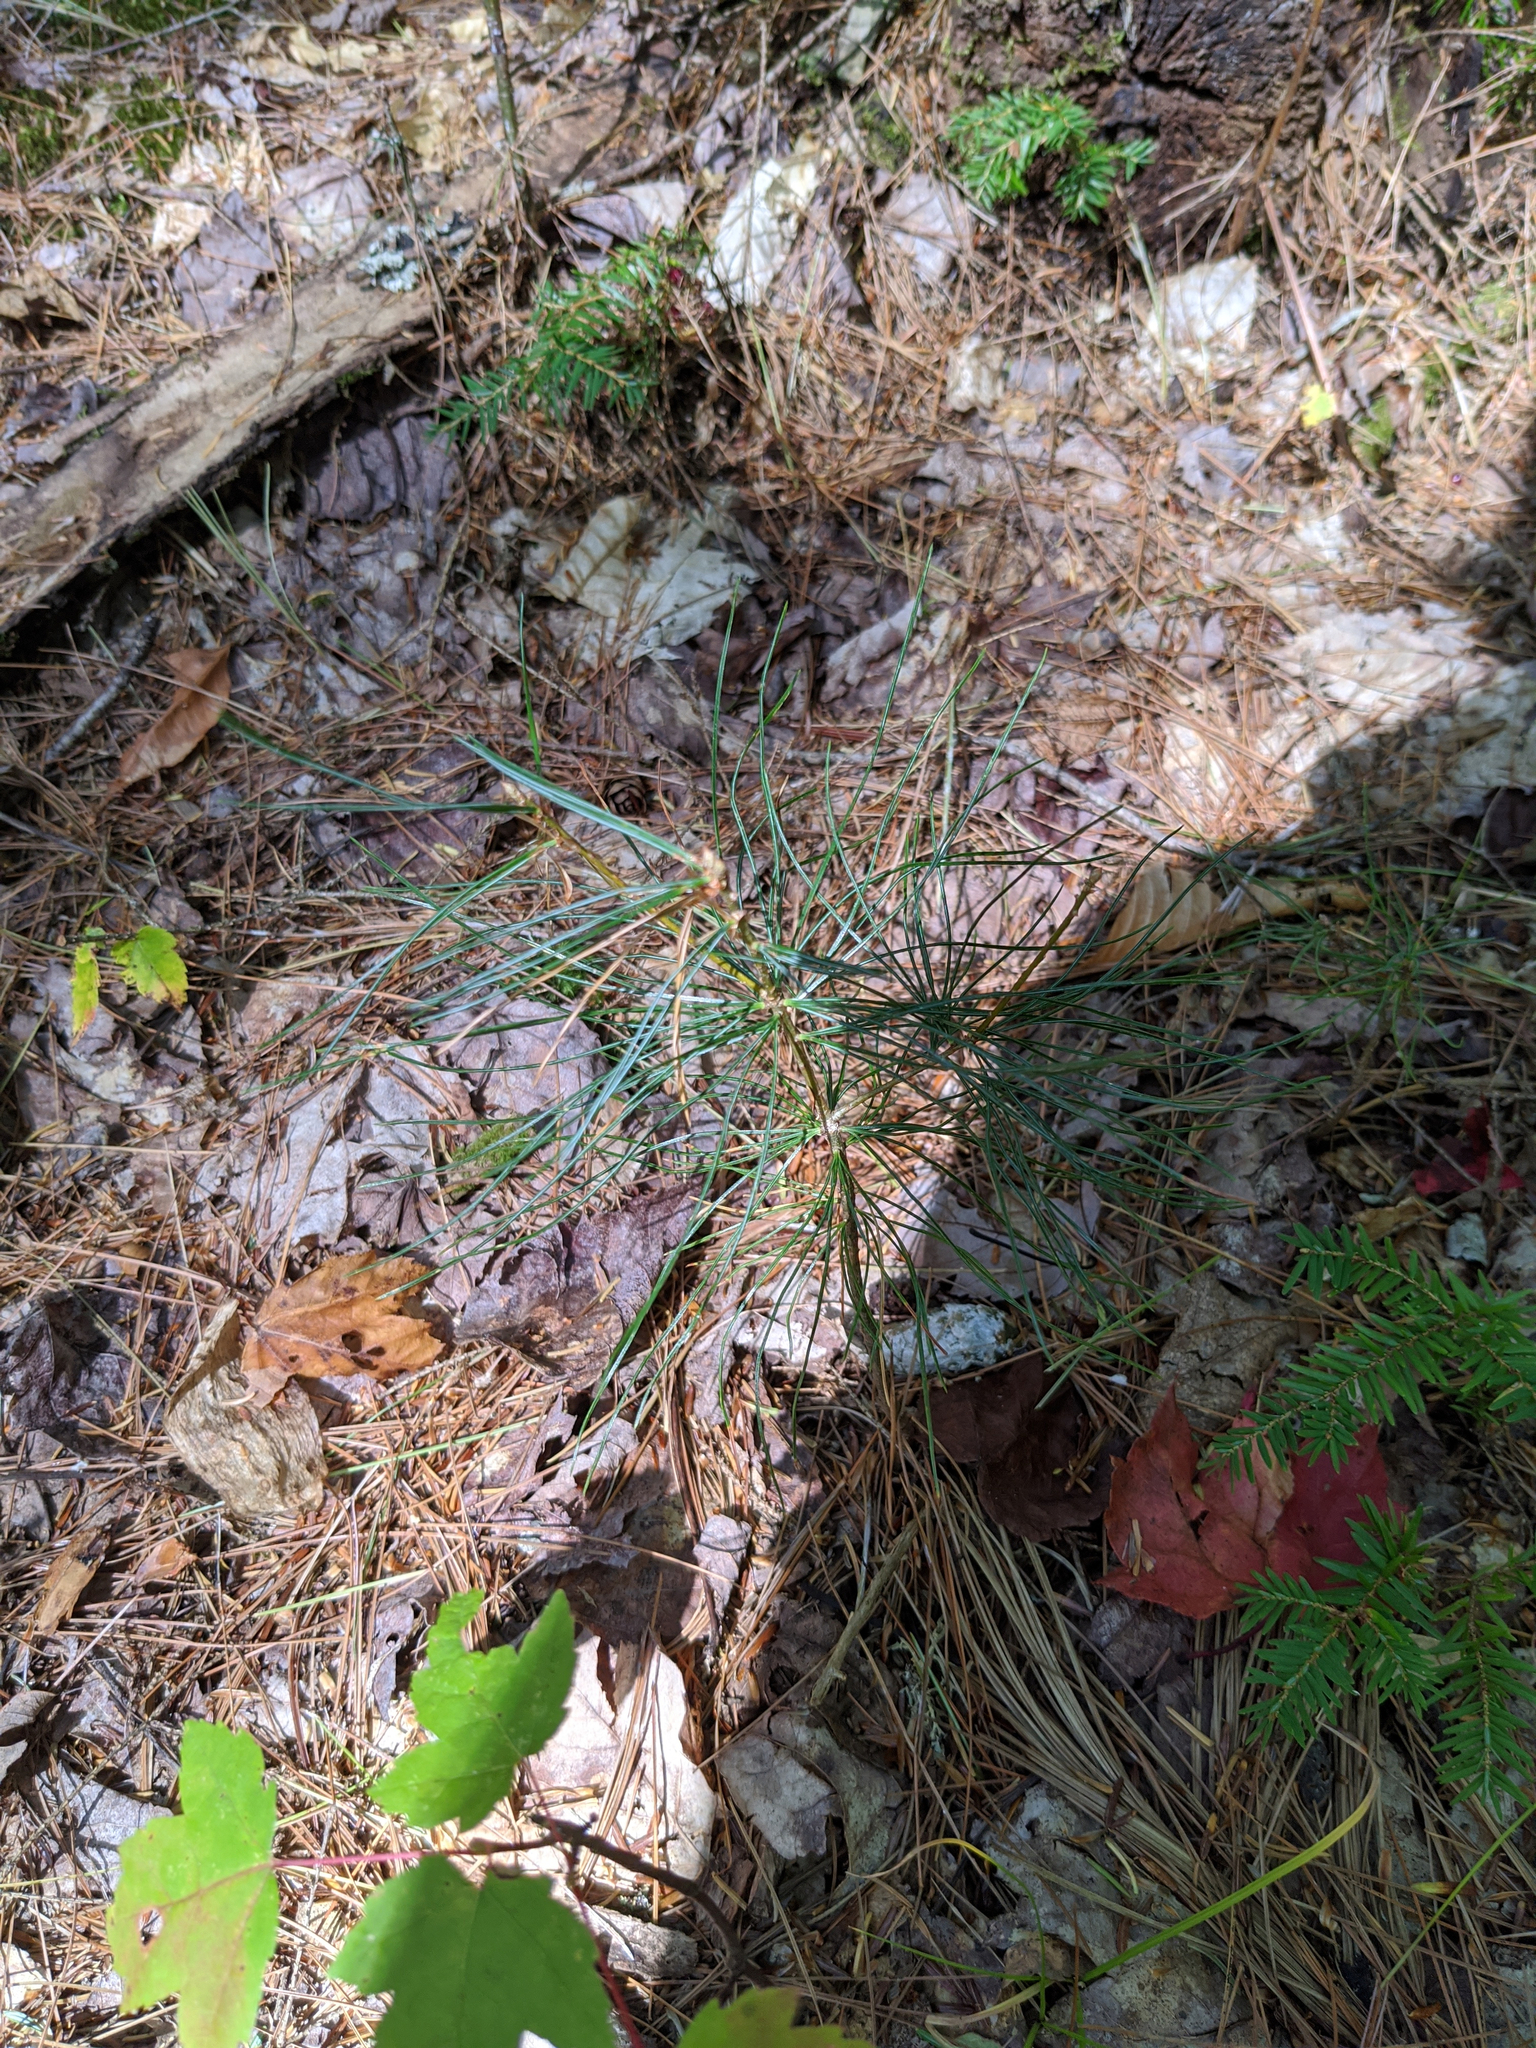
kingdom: Plantae
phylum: Tracheophyta
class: Pinopsida
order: Pinales
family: Pinaceae
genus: Pinus
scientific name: Pinus strobus
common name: Weymouth pine
